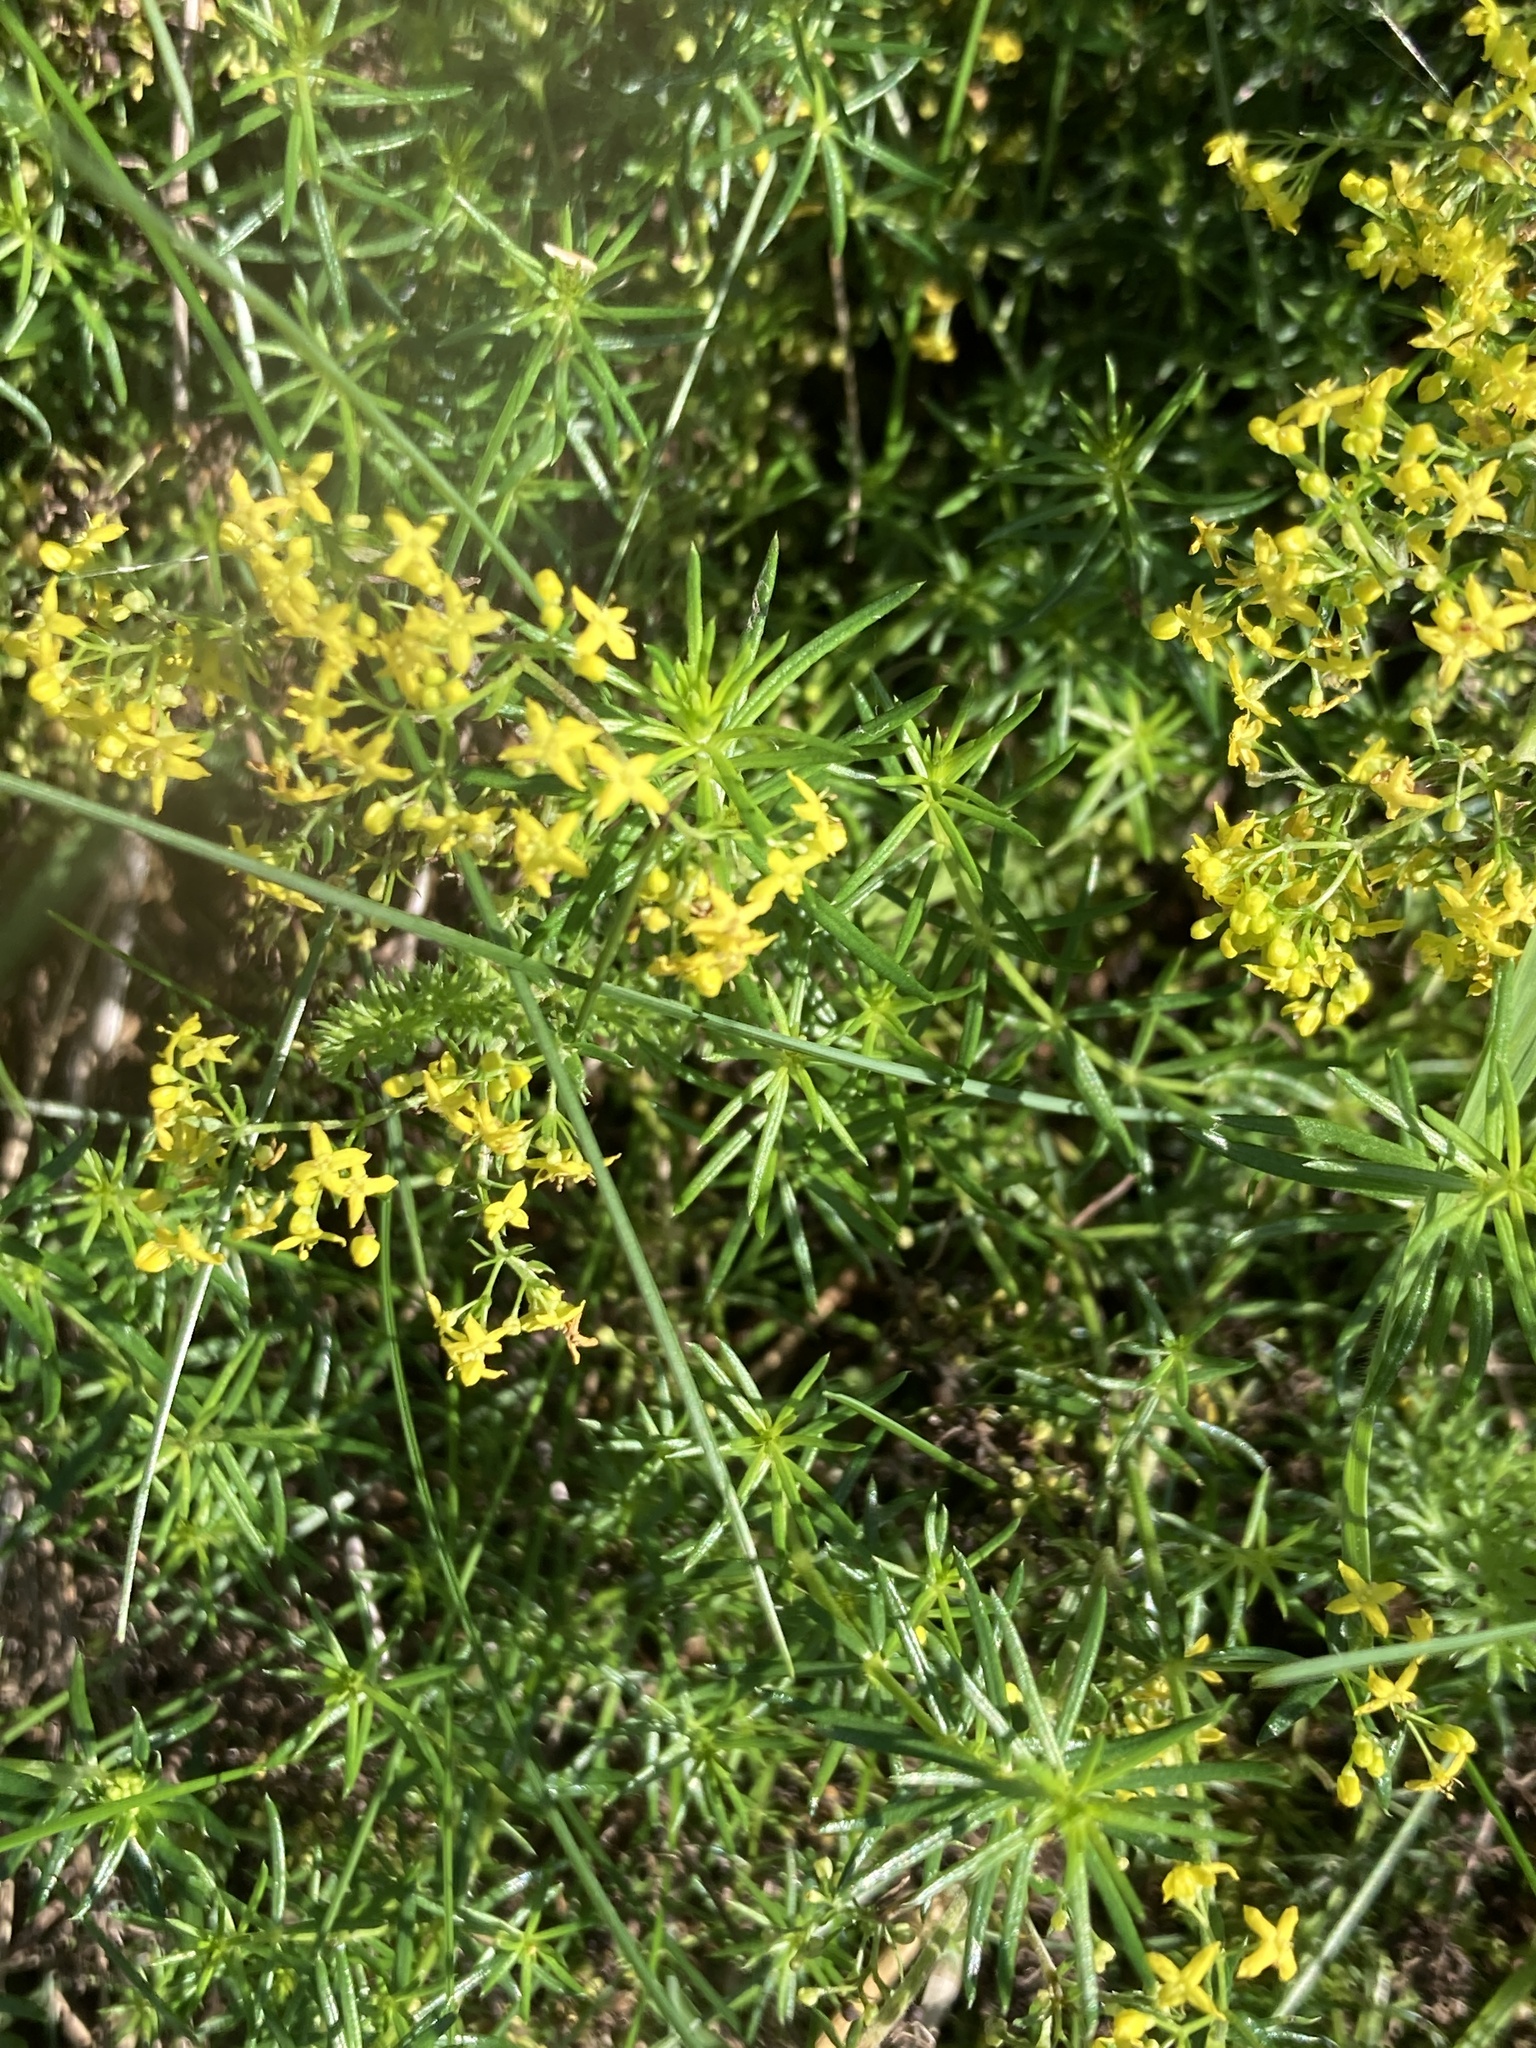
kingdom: Plantae
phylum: Tracheophyta
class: Magnoliopsida
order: Gentianales
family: Rubiaceae
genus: Galium
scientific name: Galium verum
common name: Lady's bedstraw
